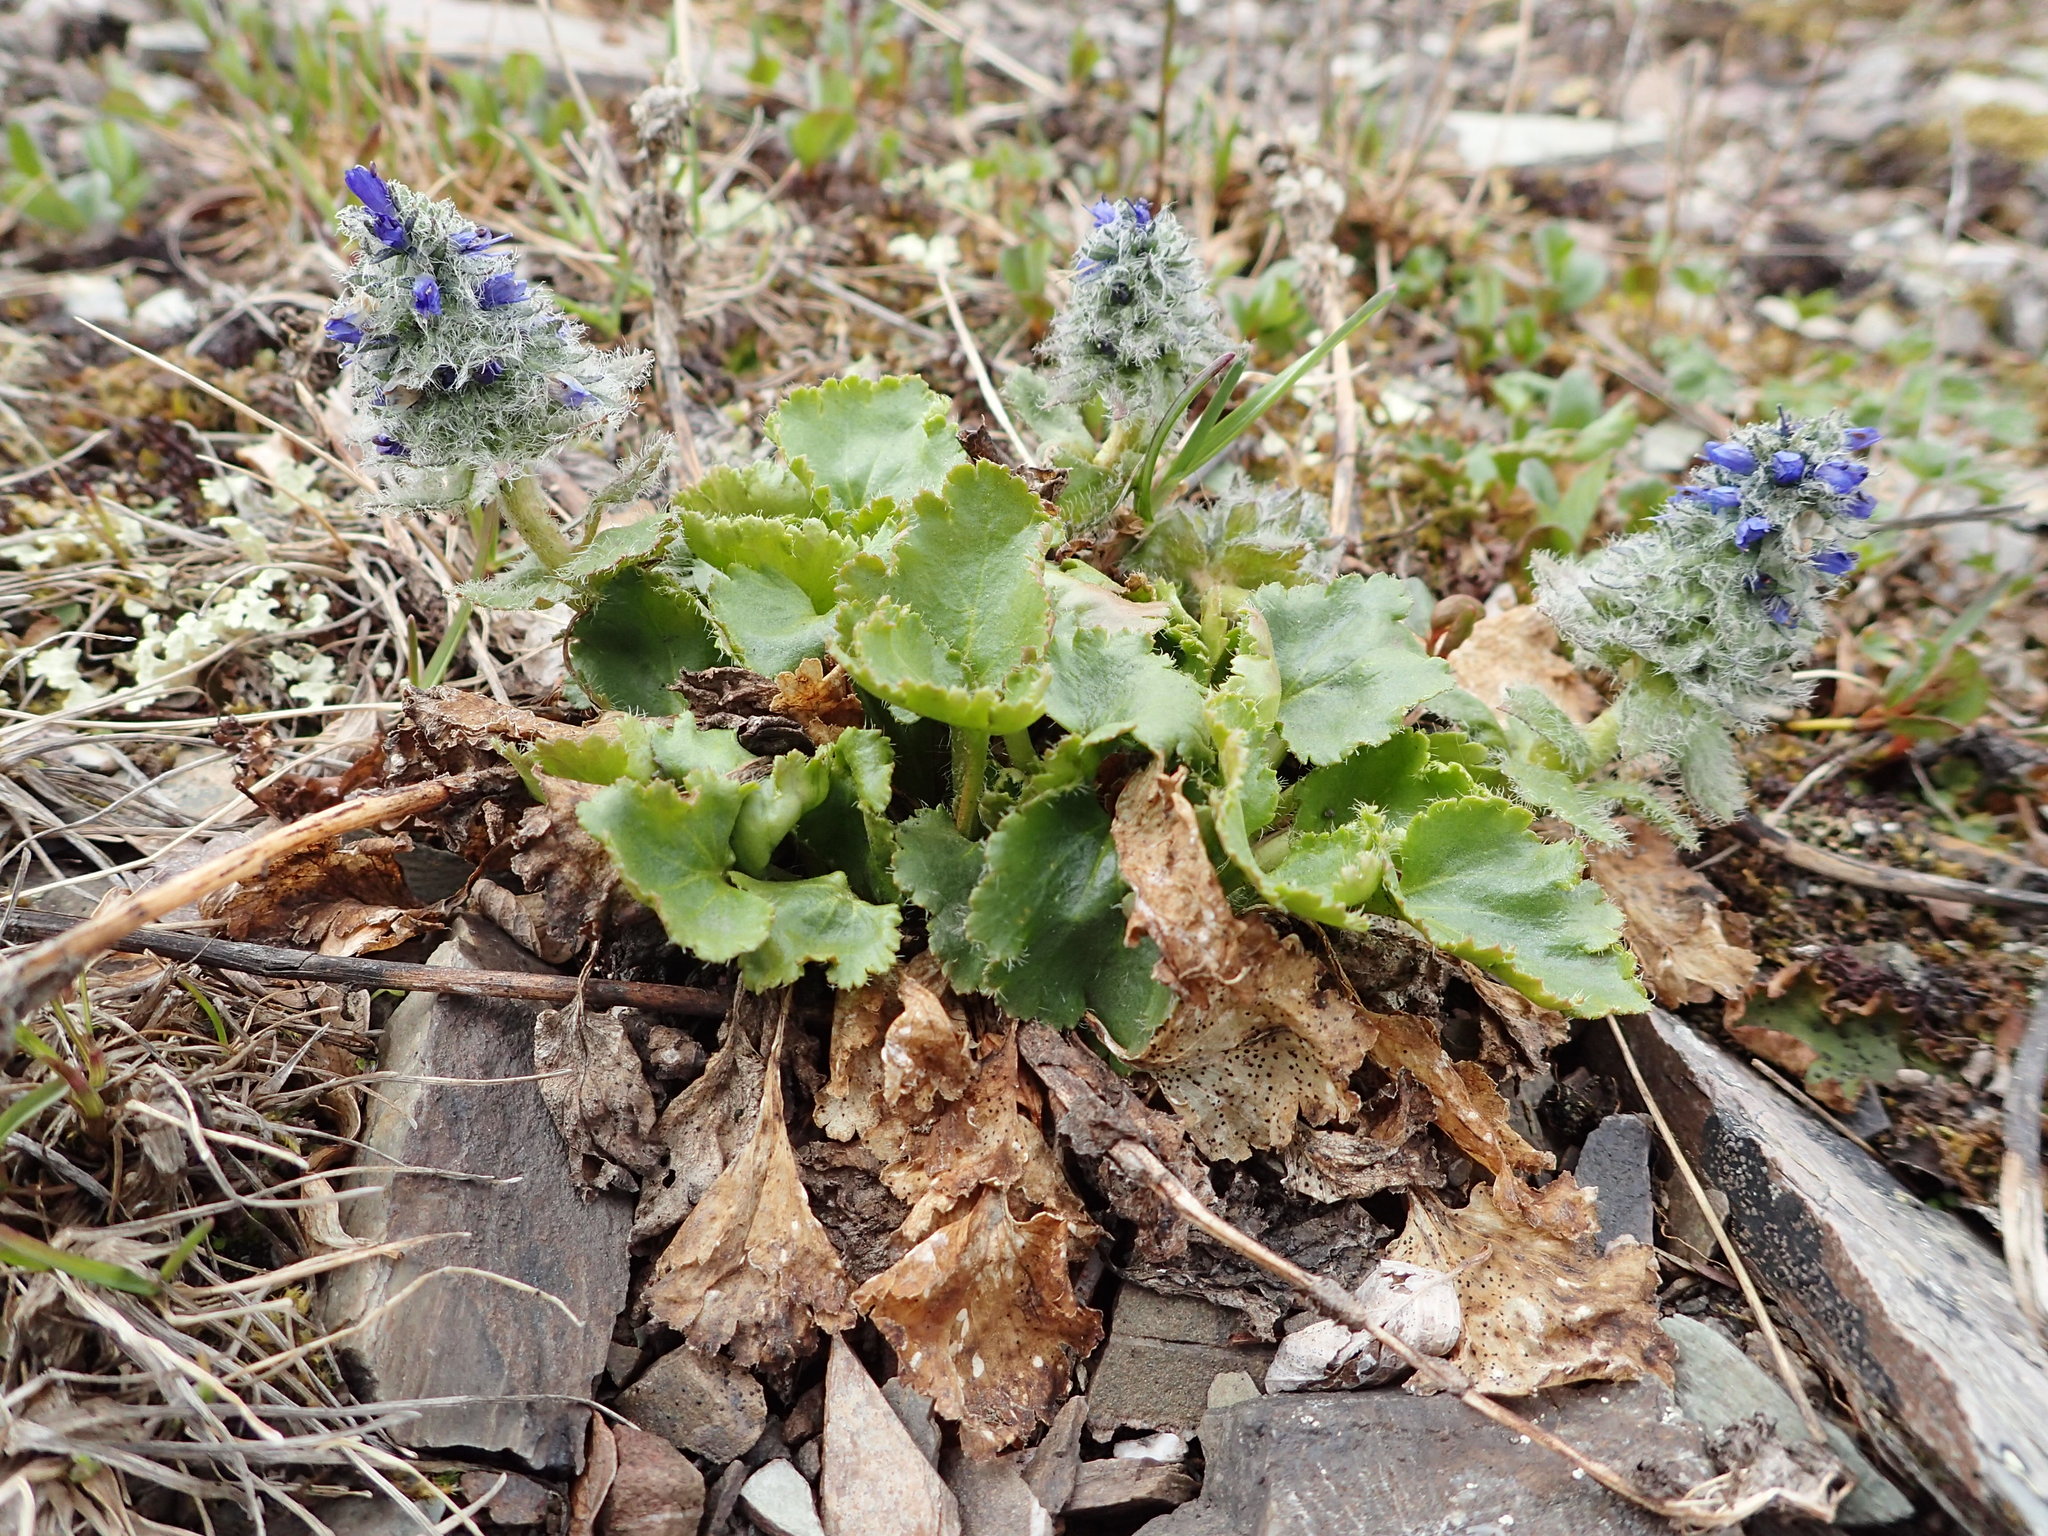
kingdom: Plantae
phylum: Tracheophyta
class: Magnoliopsida
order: Lamiales
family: Plantaginaceae
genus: Synthyris
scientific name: Synthyris borealis
